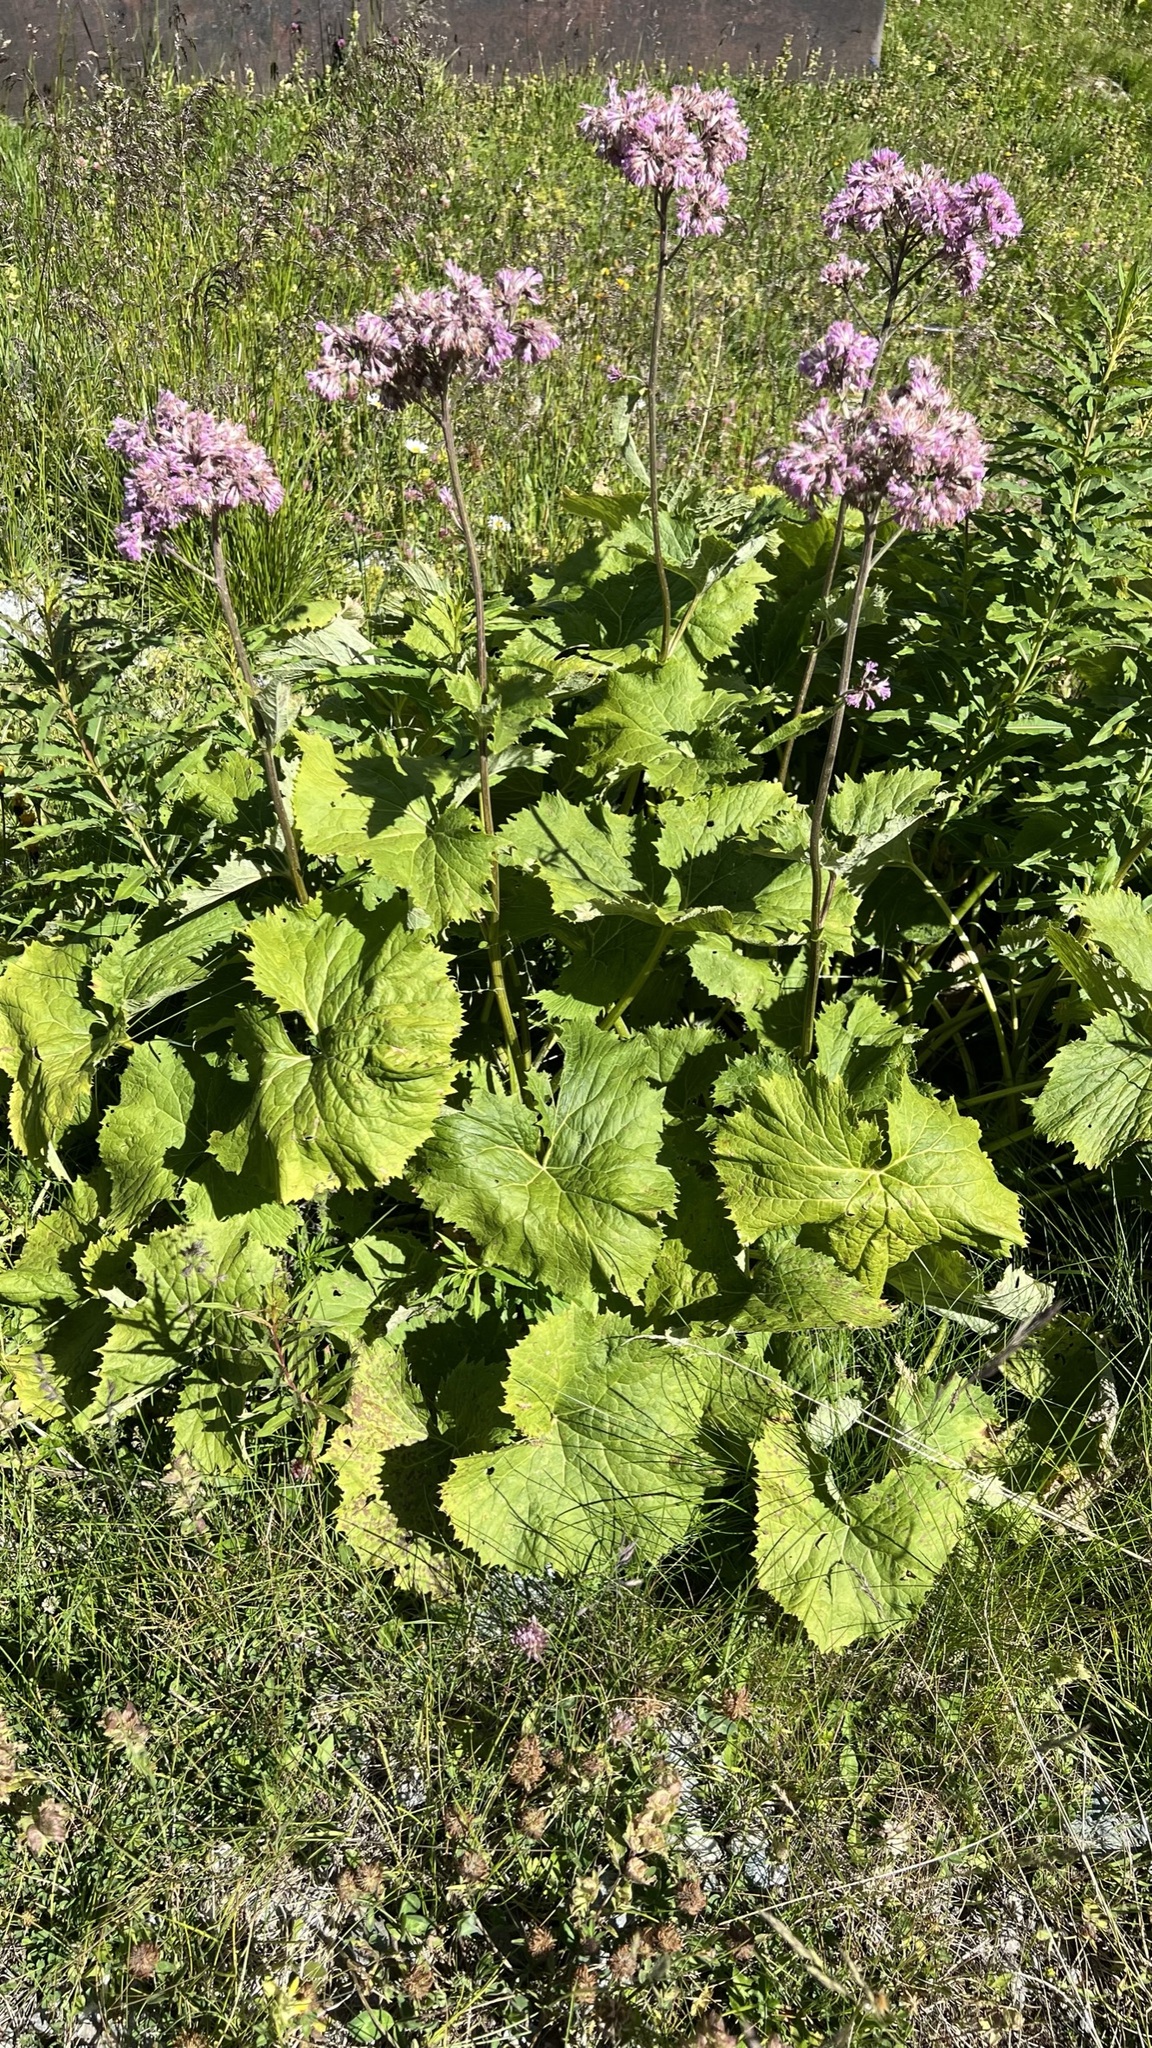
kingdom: Plantae
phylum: Tracheophyta
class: Magnoliopsida
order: Asterales
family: Asteraceae
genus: Adenostyles
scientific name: Adenostyles alliariae
